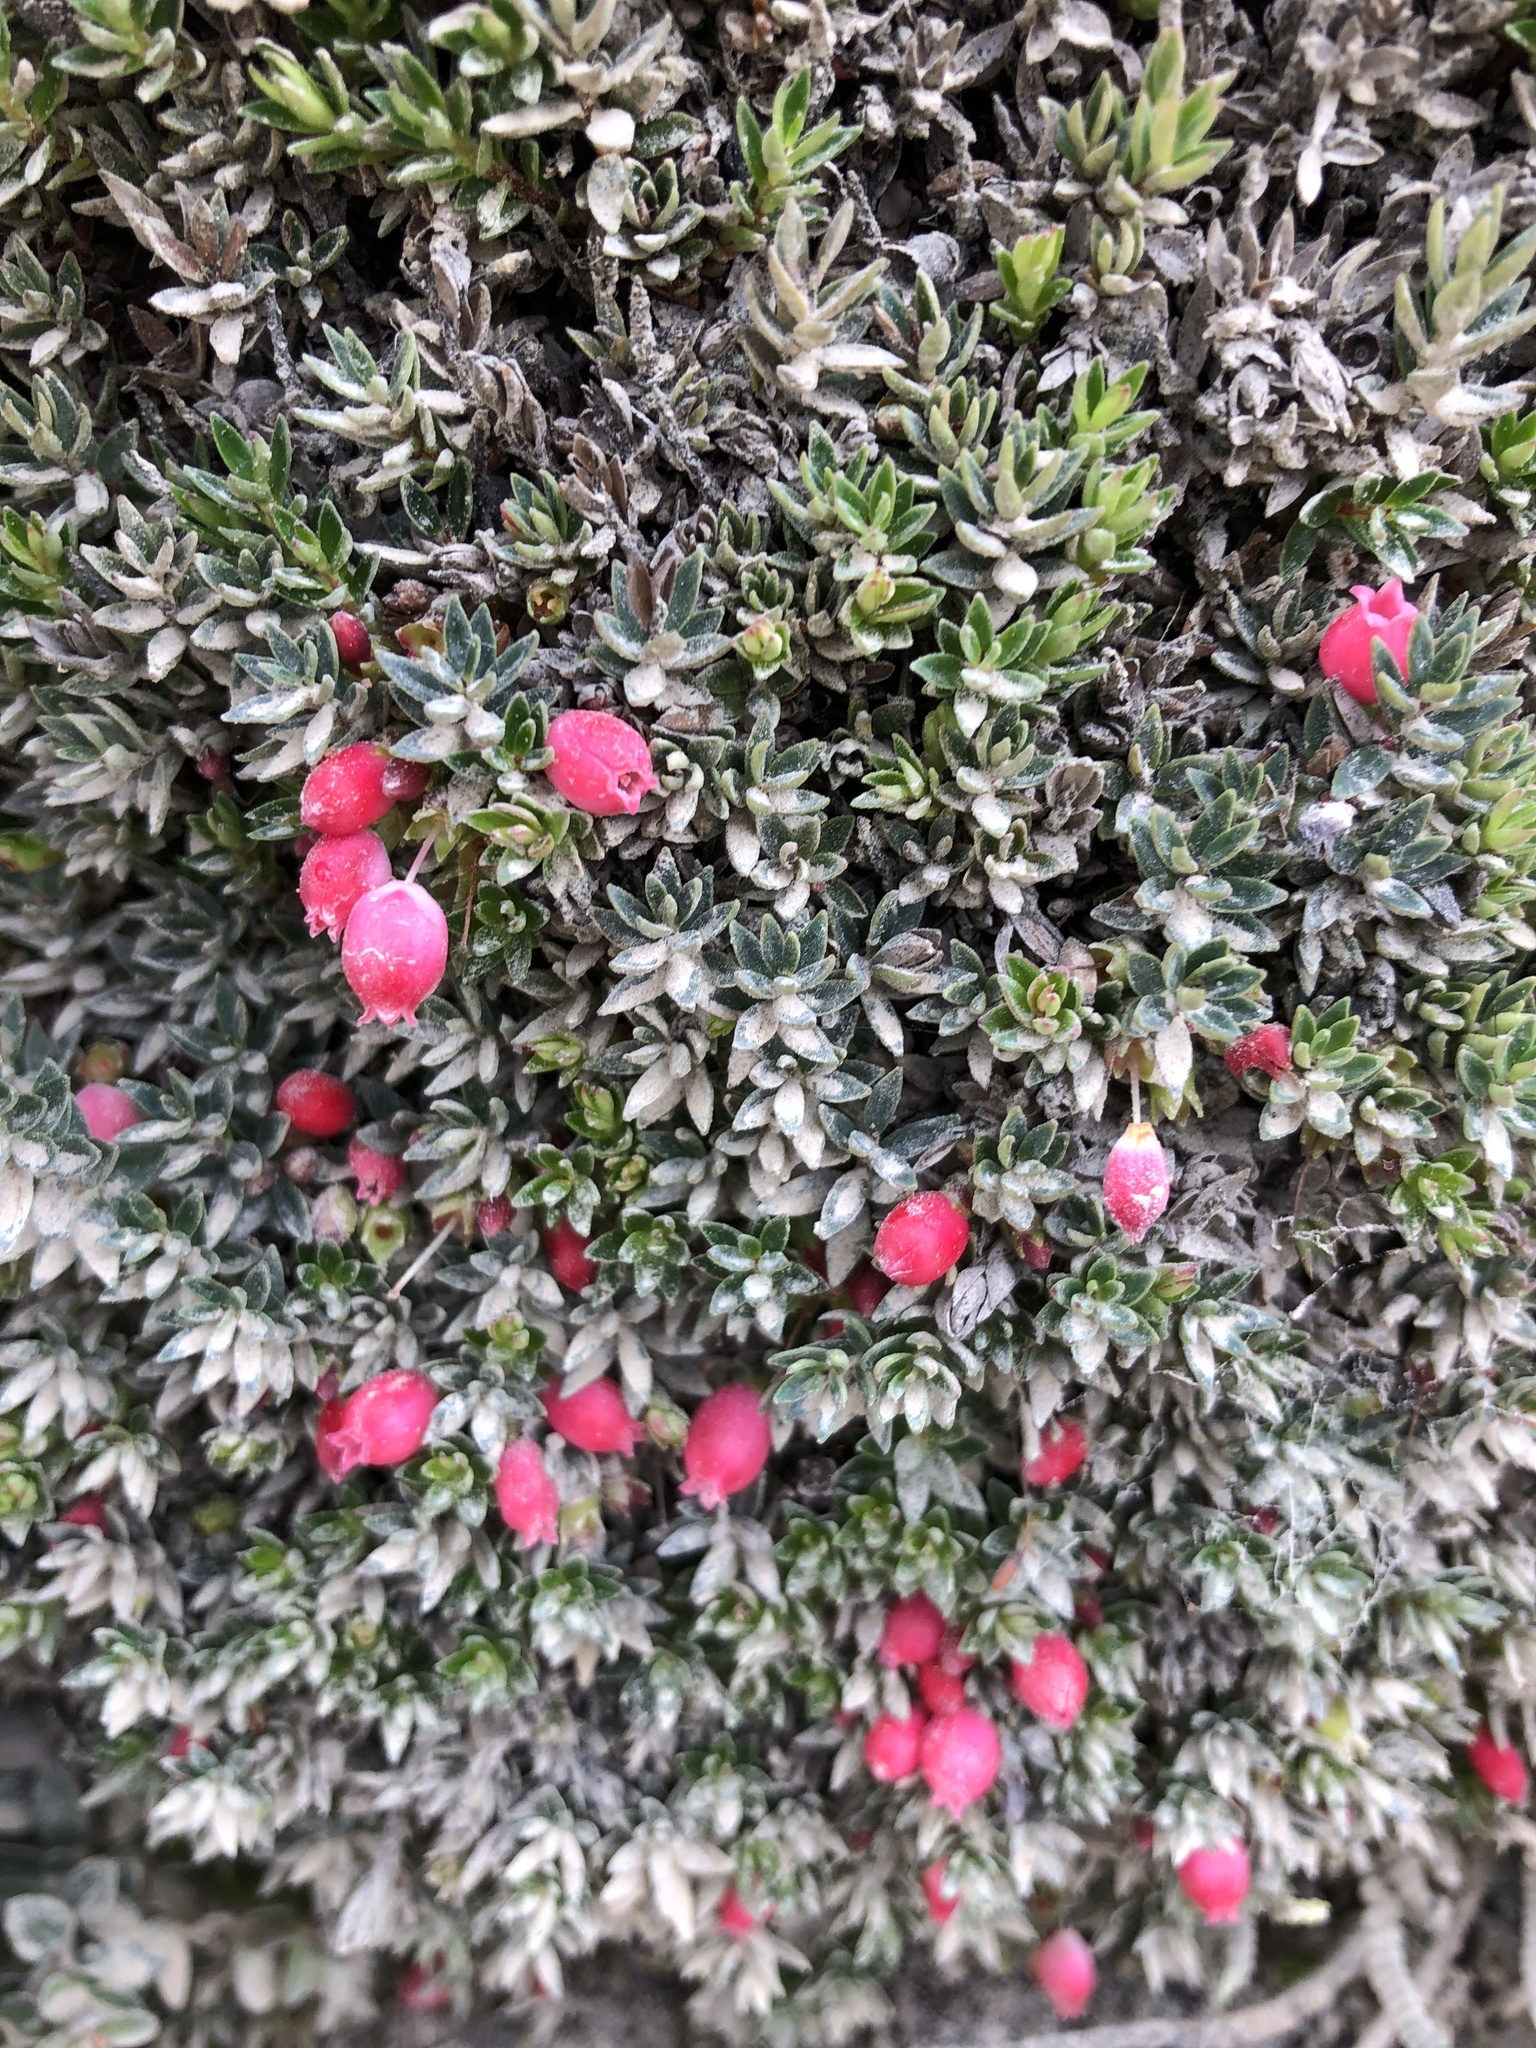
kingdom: Plantae
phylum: Tracheophyta
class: Magnoliopsida
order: Ericales
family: Ericaceae
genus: Disterigma
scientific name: Disterigma empetrifolium
